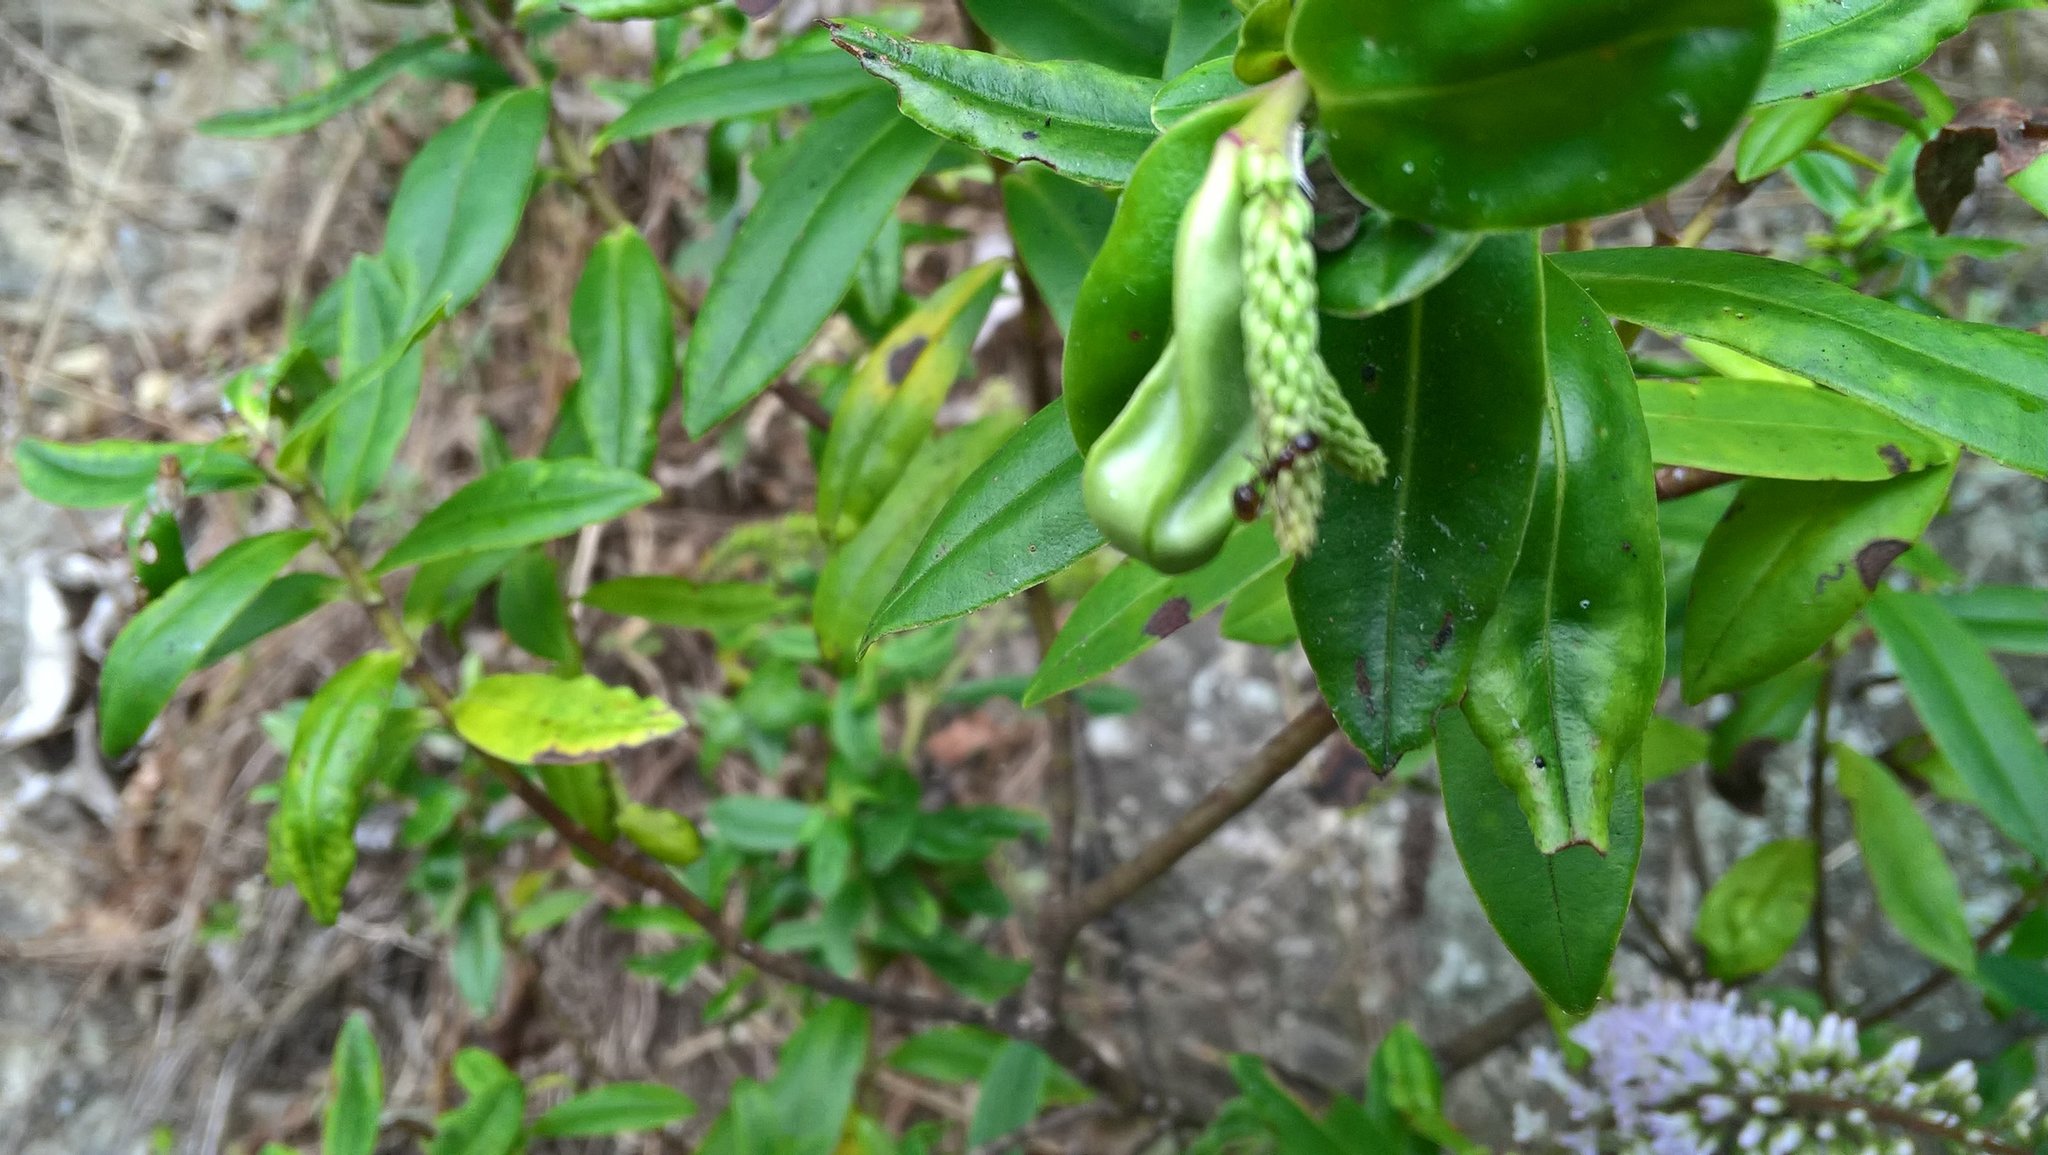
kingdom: Animalia
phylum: Arthropoda
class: Insecta
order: Hymenoptera
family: Formicidae
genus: Monomorium
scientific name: Monomorium antarcticum
